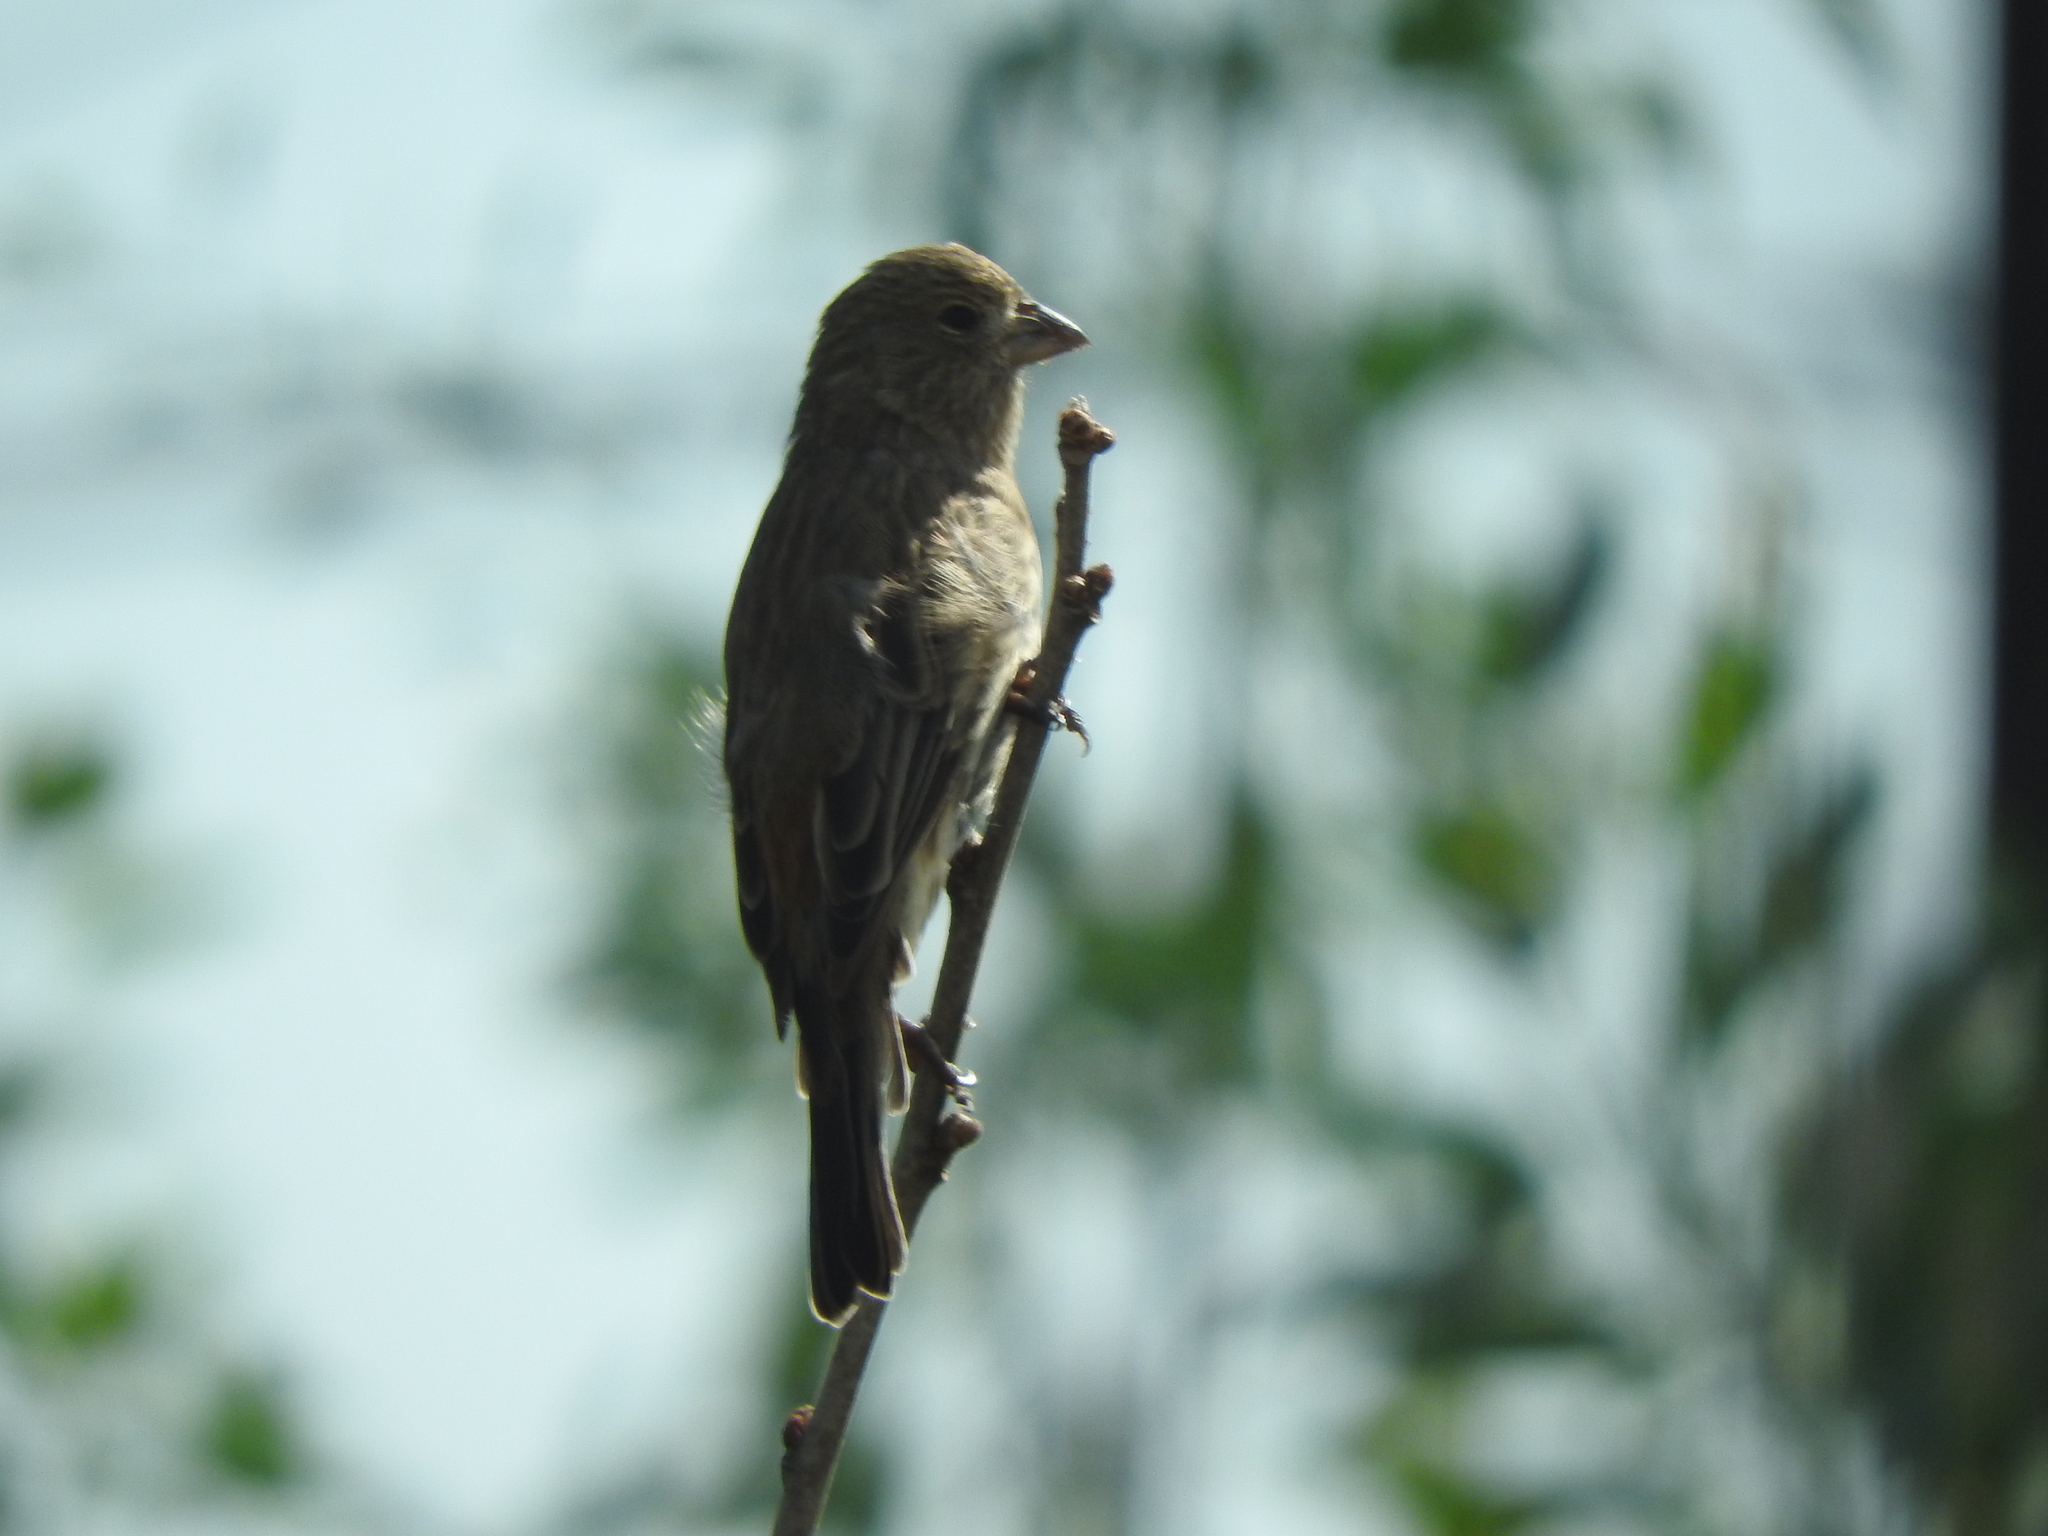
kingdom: Animalia
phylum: Chordata
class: Aves
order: Passeriformes
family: Fringillidae
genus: Haemorhous
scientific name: Haemorhous mexicanus
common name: House finch
